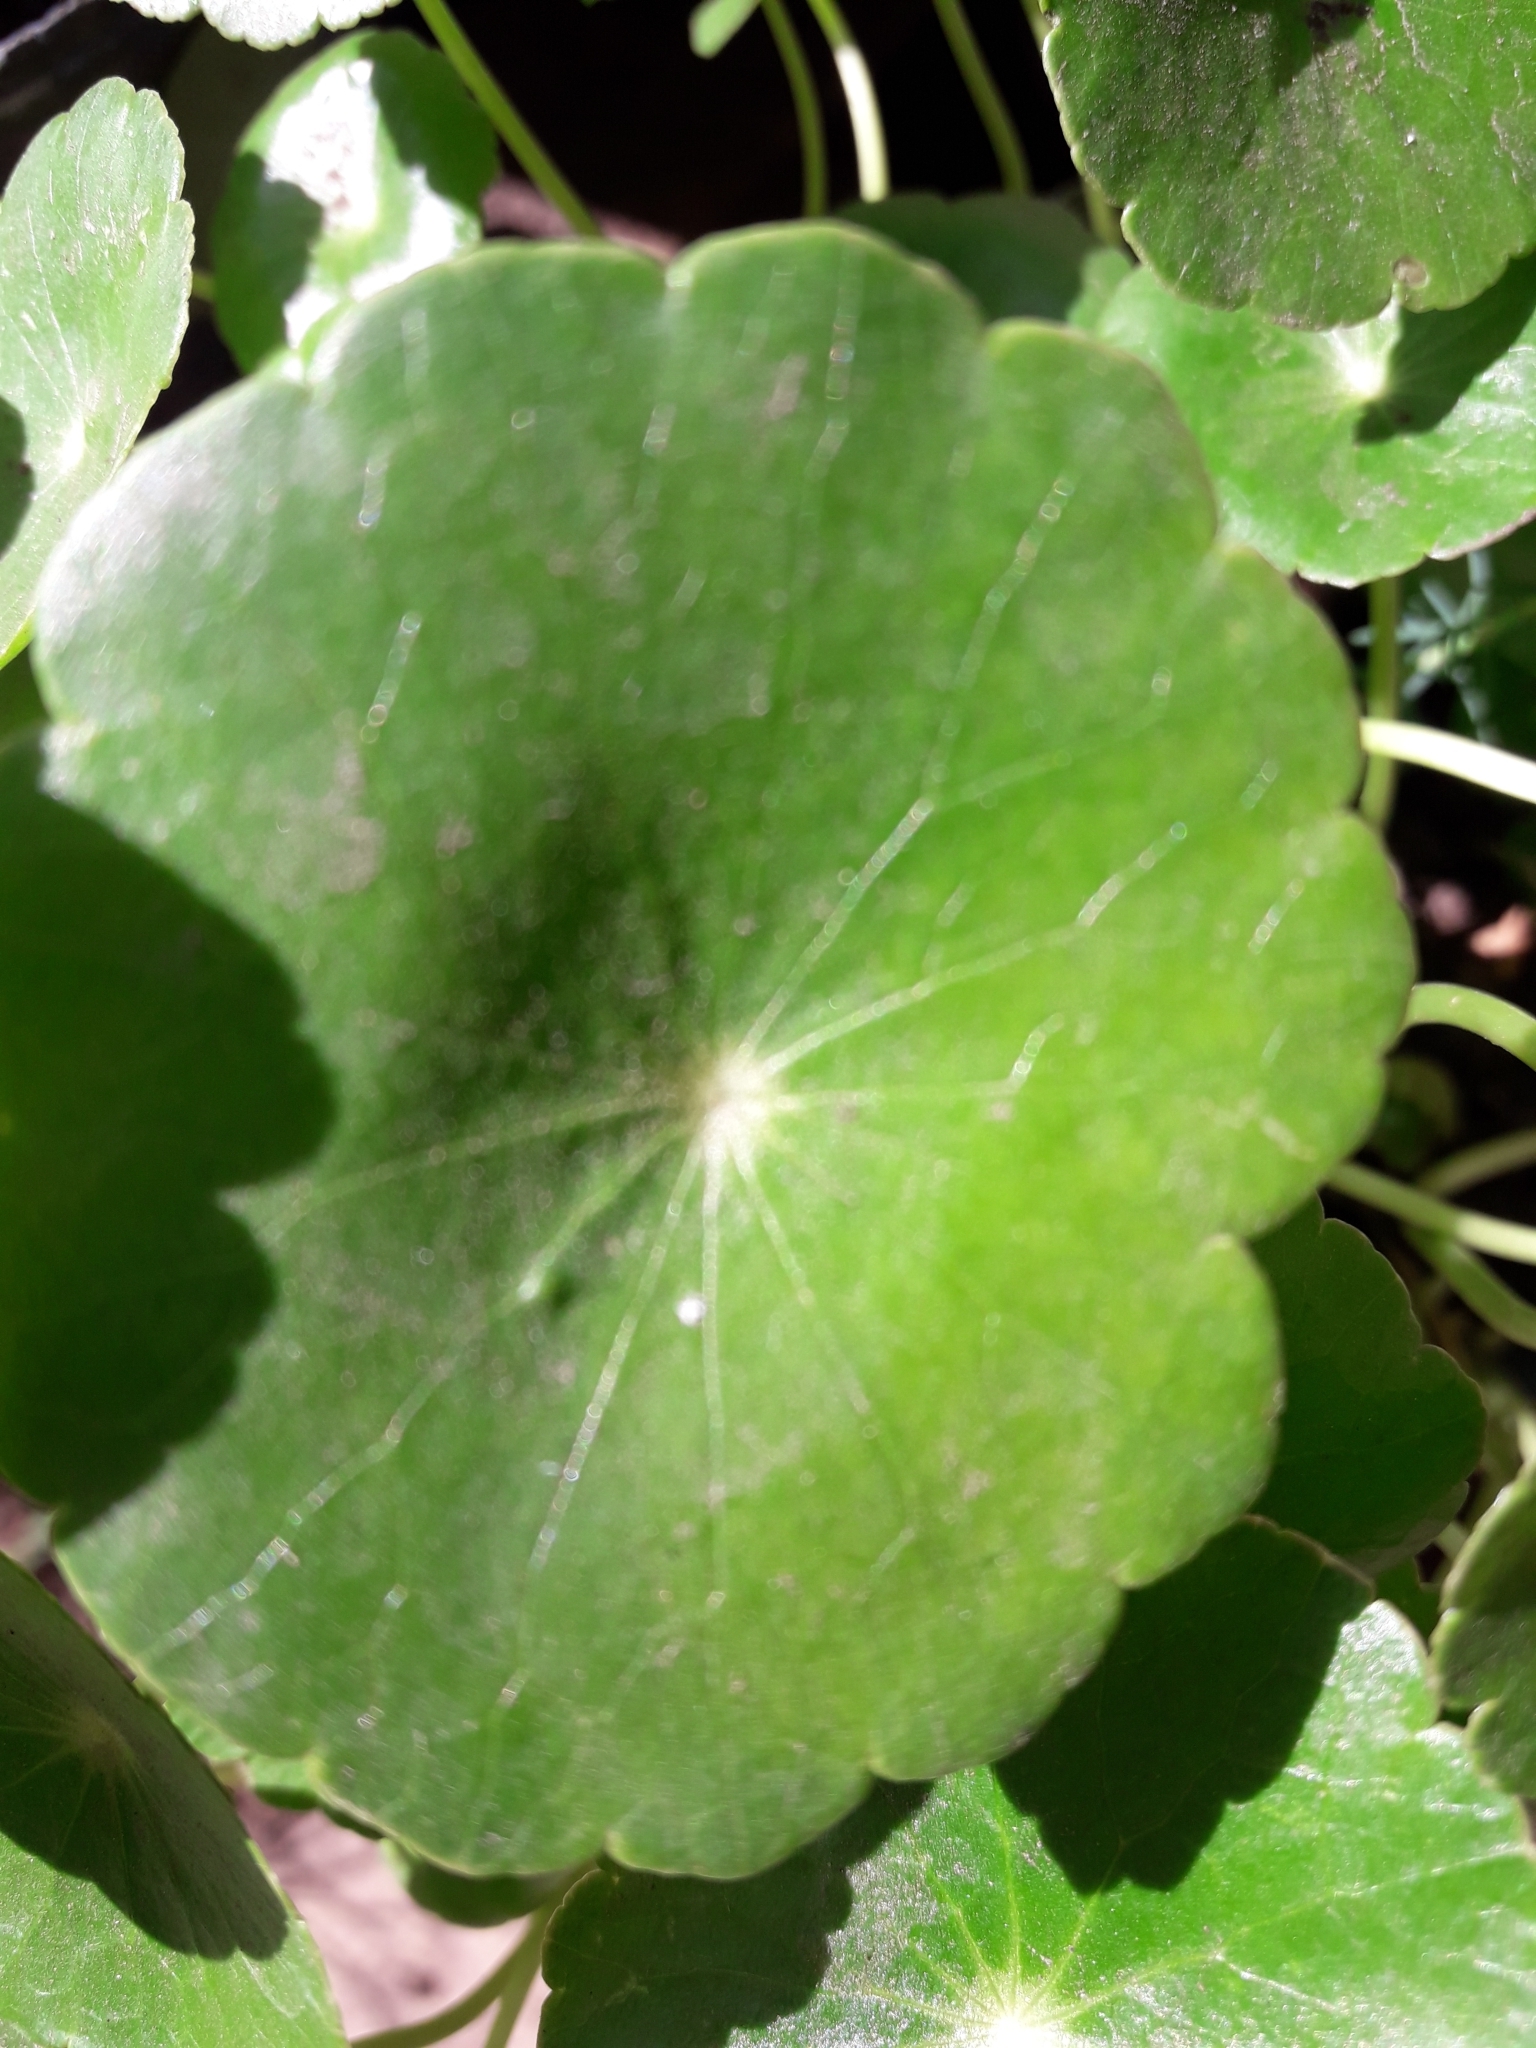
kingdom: Plantae
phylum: Tracheophyta
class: Magnoliopsida
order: Apiales
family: Araliaceae
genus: Hydrocotyle
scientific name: Hydrocotyle bonariensis
